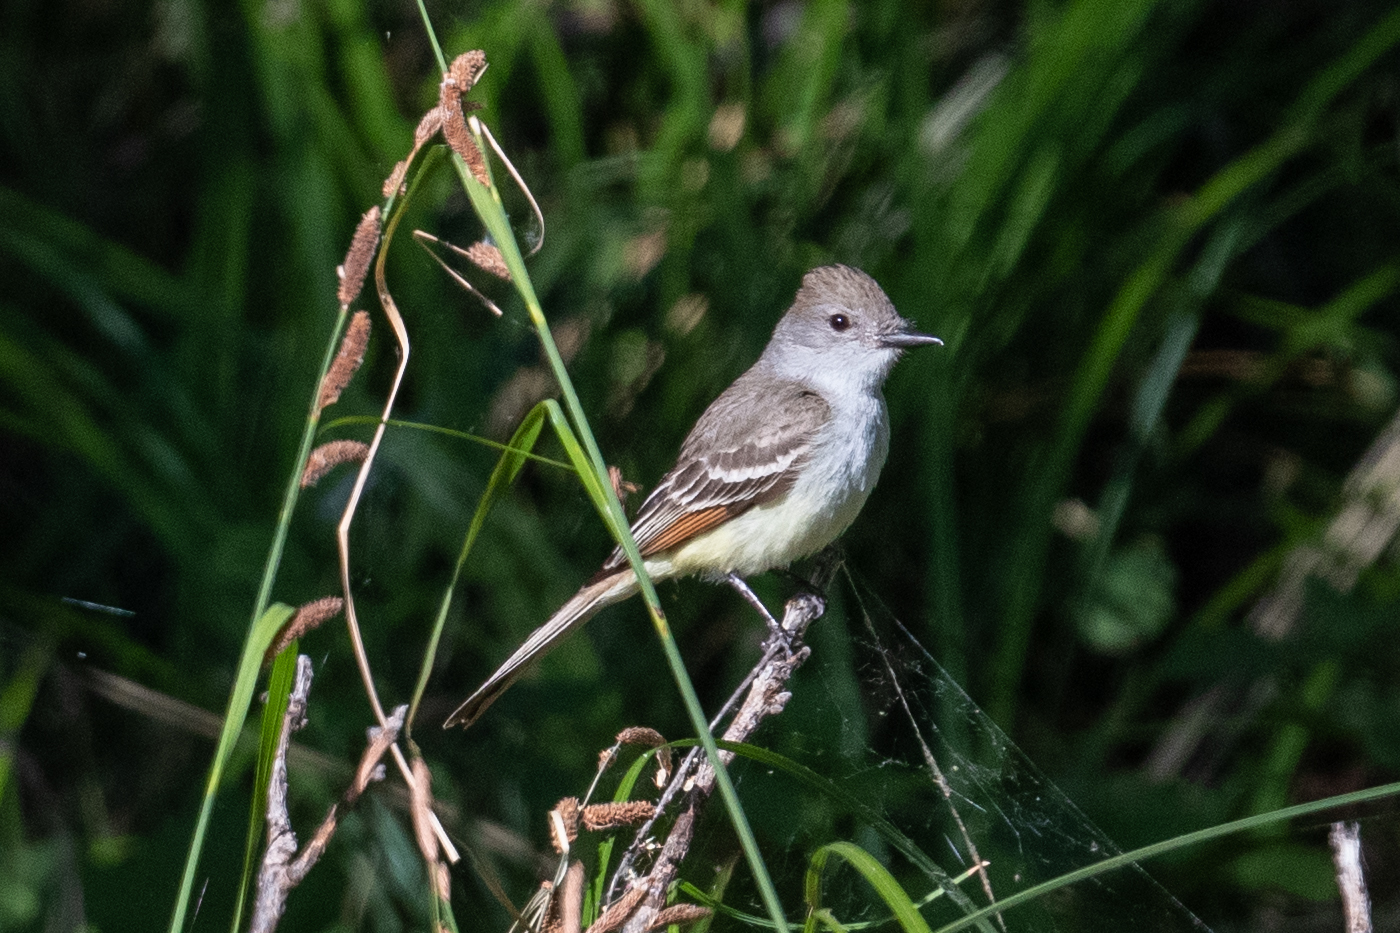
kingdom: Animalia
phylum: Chordata
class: Aves
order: Passeriformes
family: Tyrannidae
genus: Myiarchus
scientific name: Myiarchus cinerascens
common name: Ash-throated flycatcher
